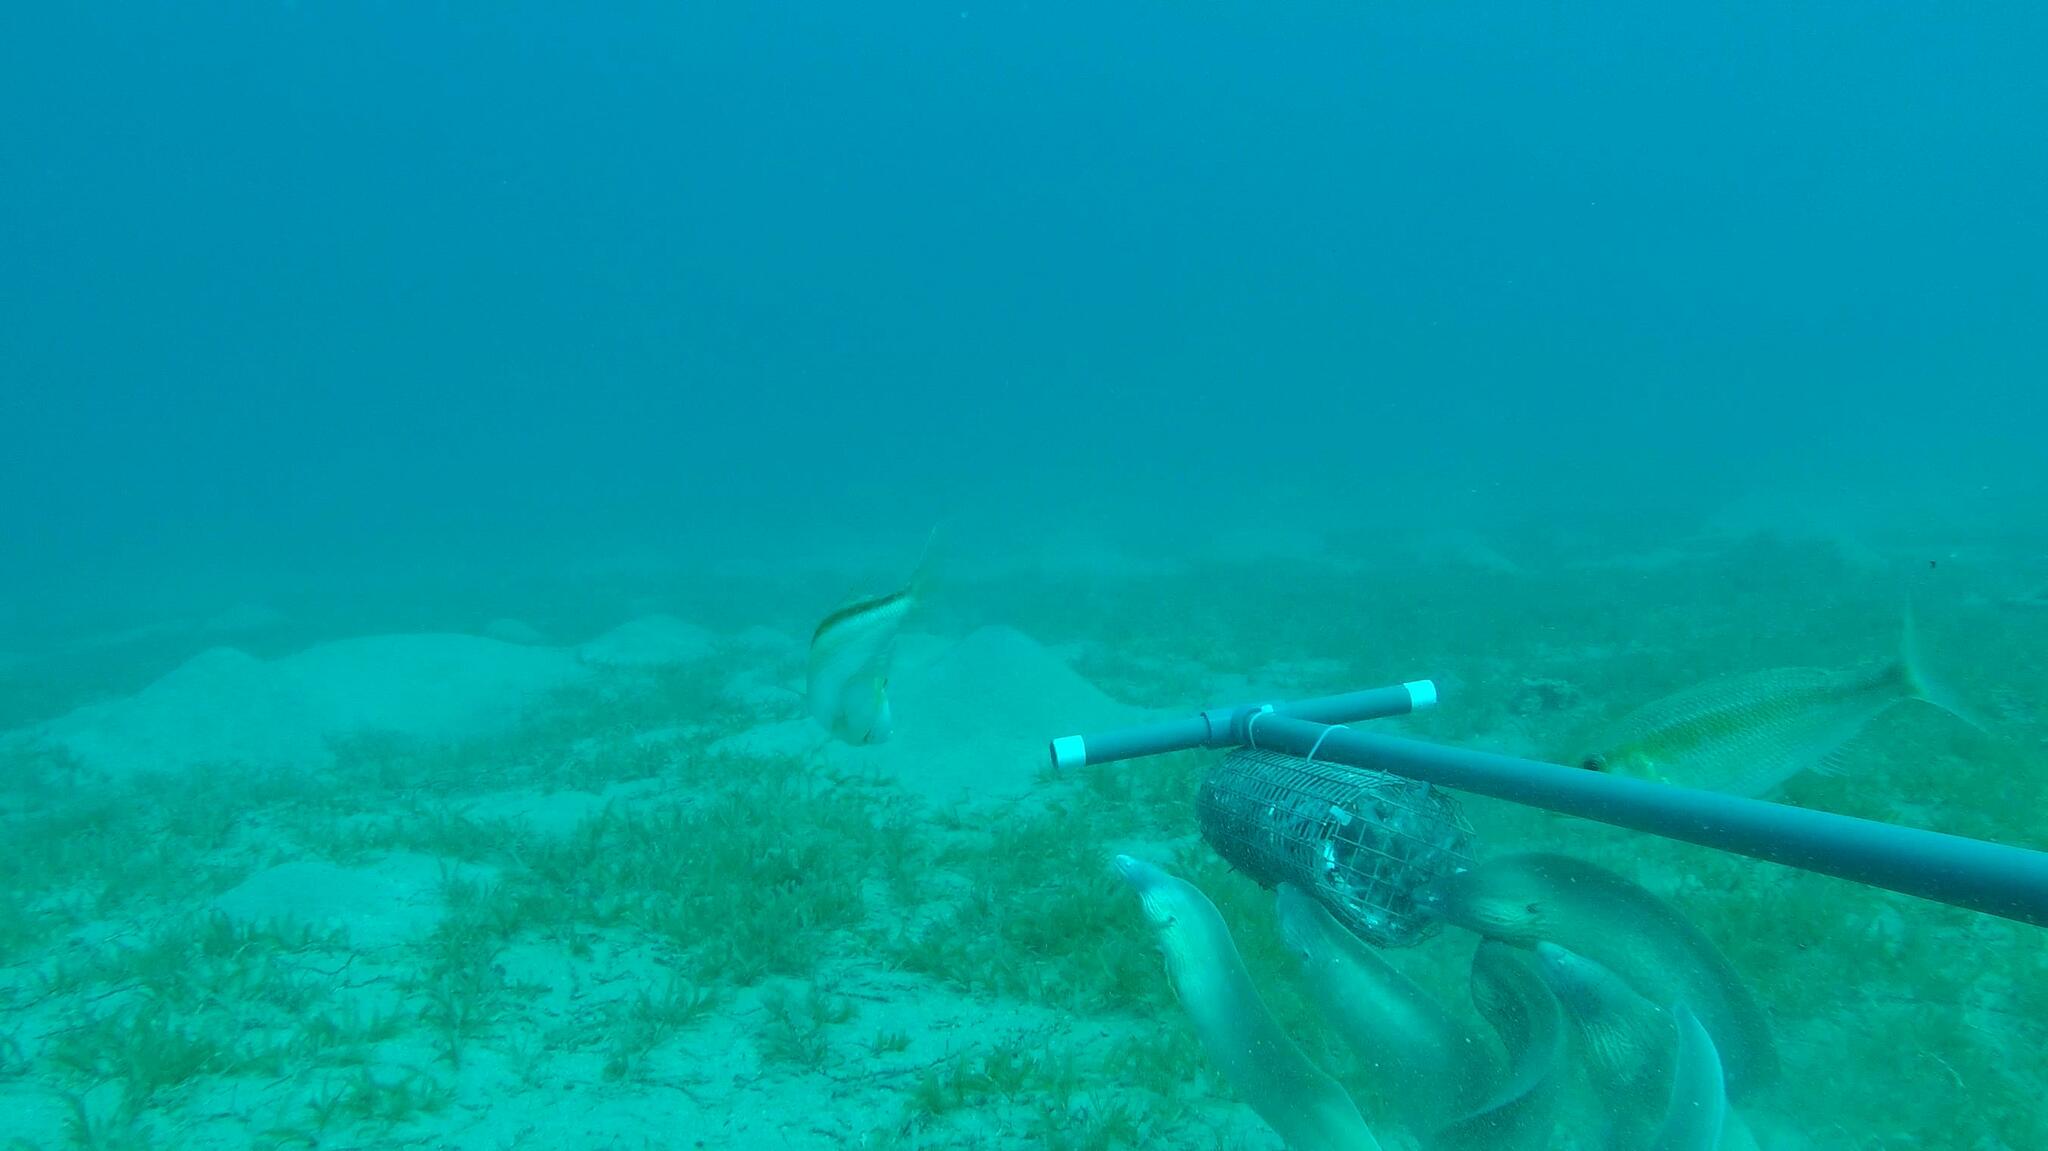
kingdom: Animalia
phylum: Chordata
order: Anguilliformes
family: Muraenidae
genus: Gymnothorax
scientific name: Gymnothorax griseus
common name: Geometric moray
